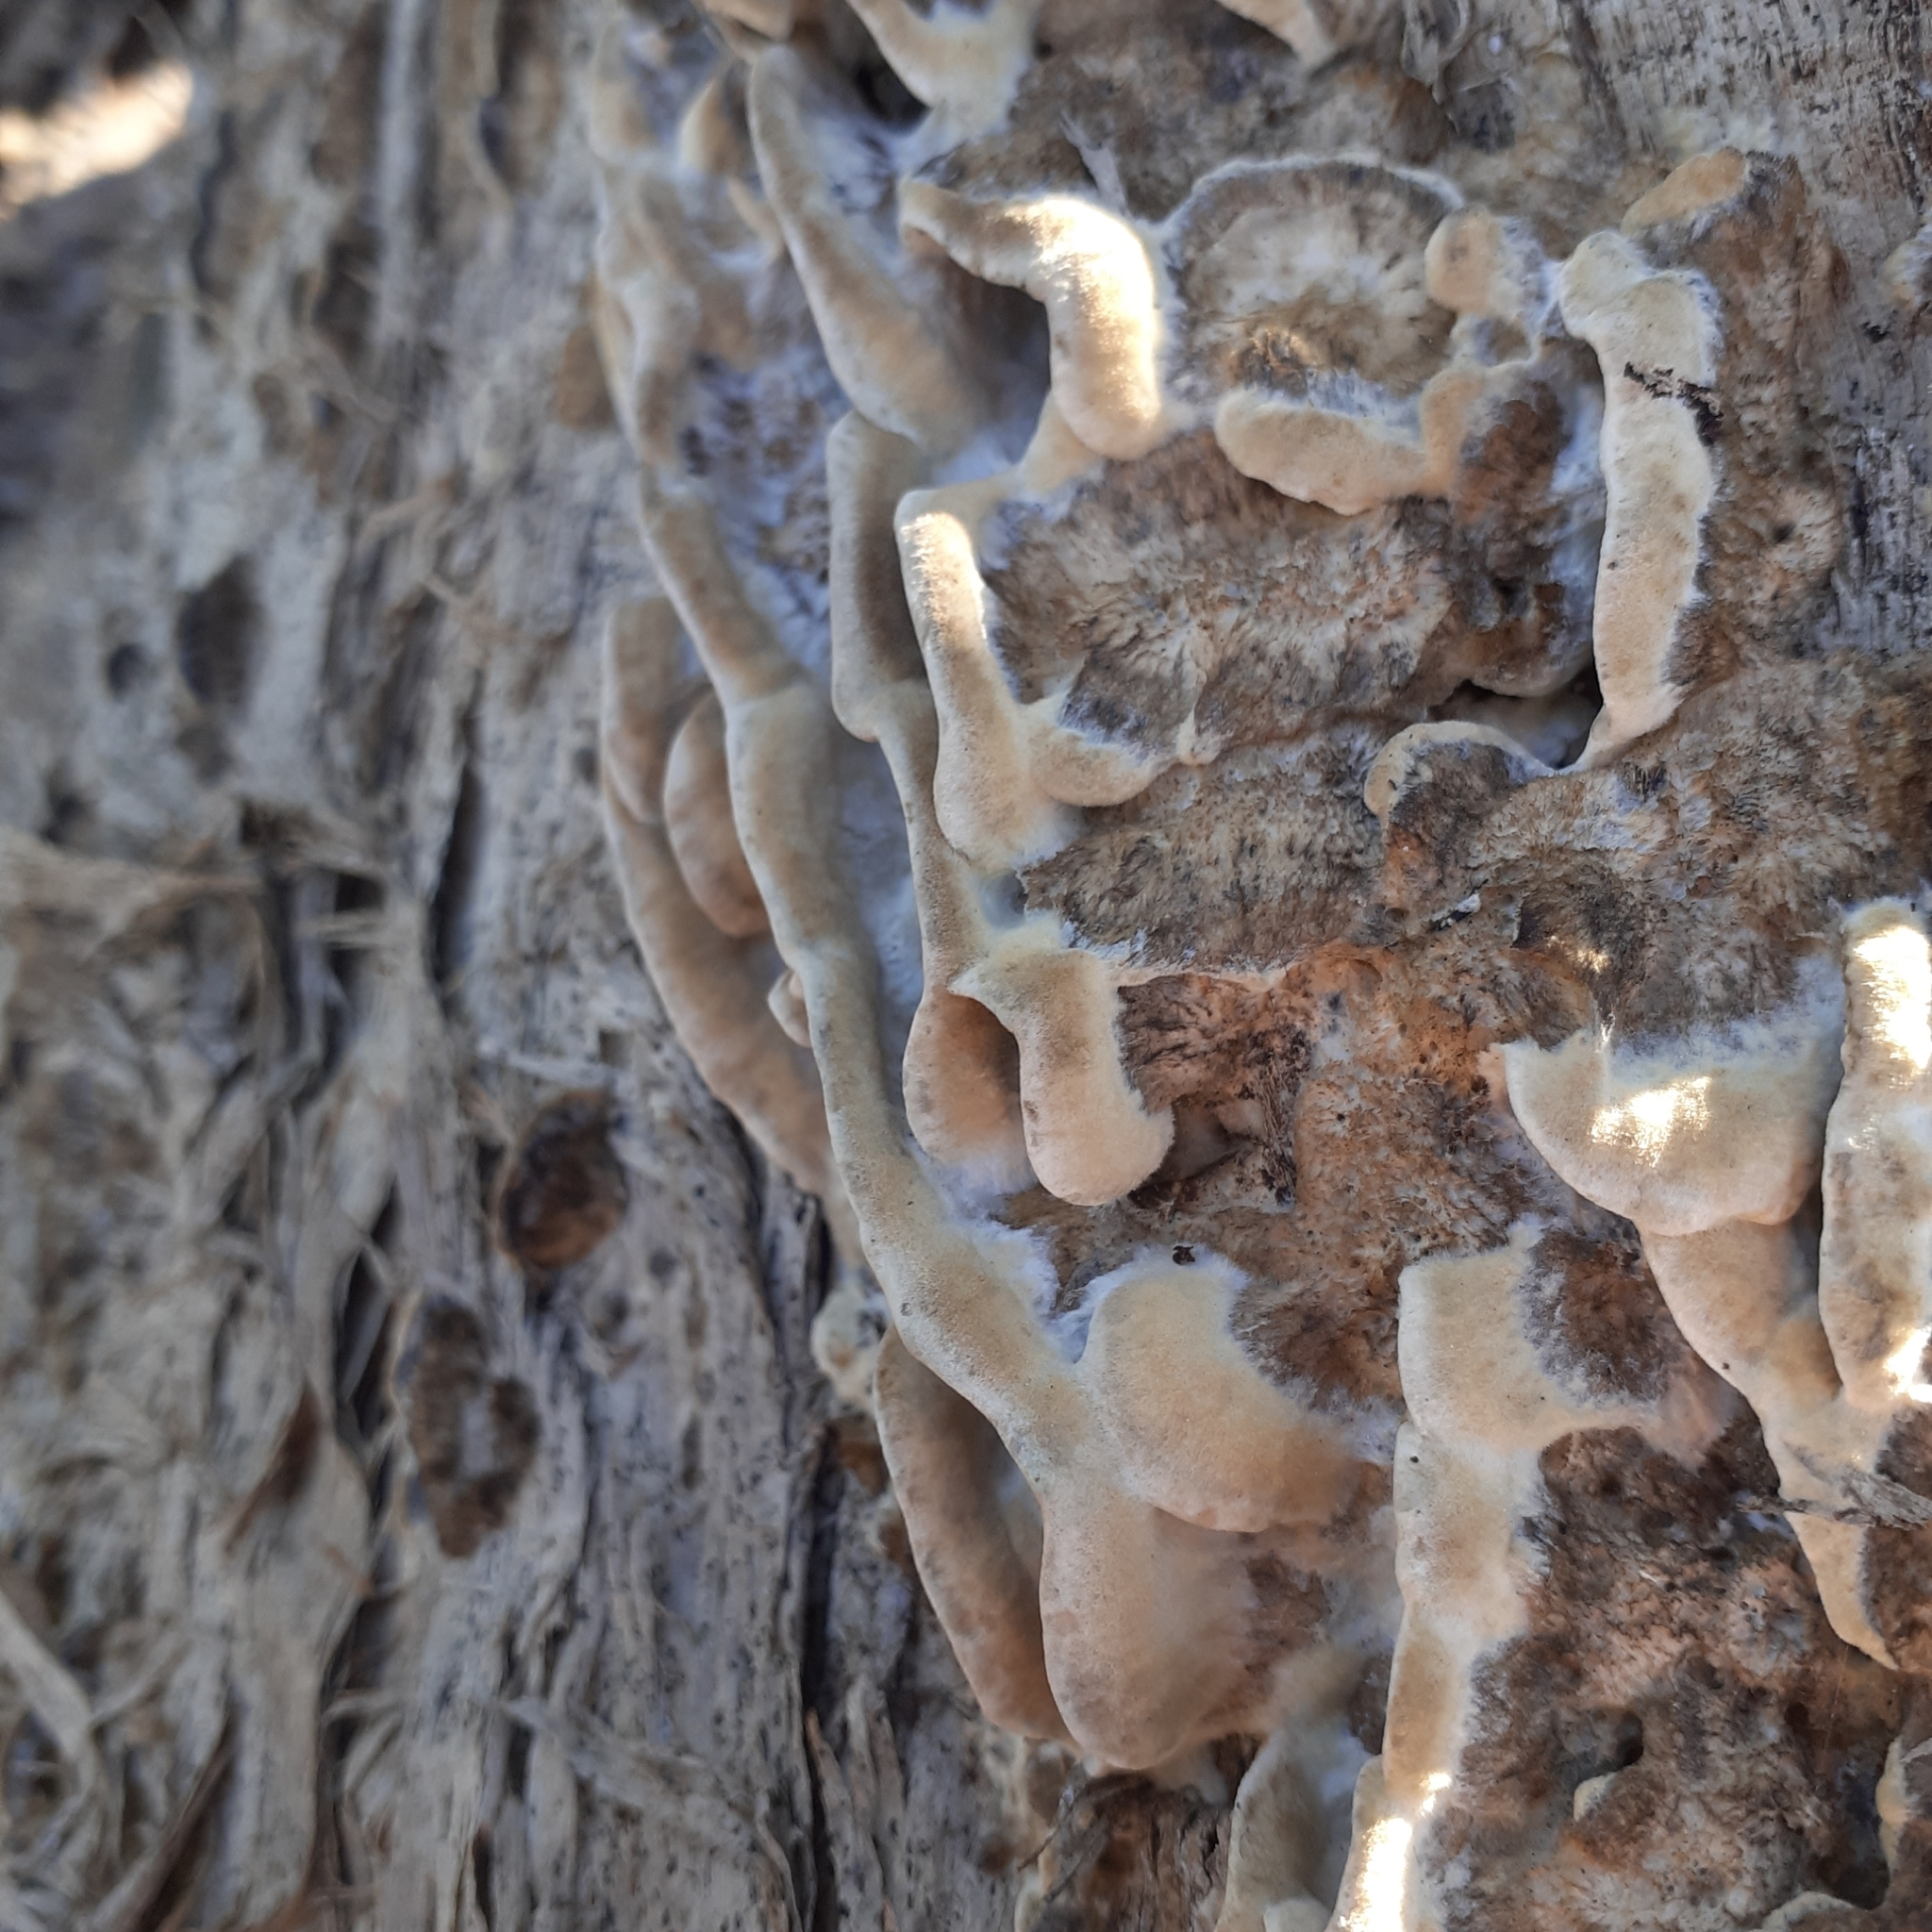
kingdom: Fungi
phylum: Basidiomycota
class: Agaricomycetes
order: Polyporales
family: Phanerochaetaceae
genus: Bjerkandera
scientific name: Bjerkandera adusta
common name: Smoky bracket
